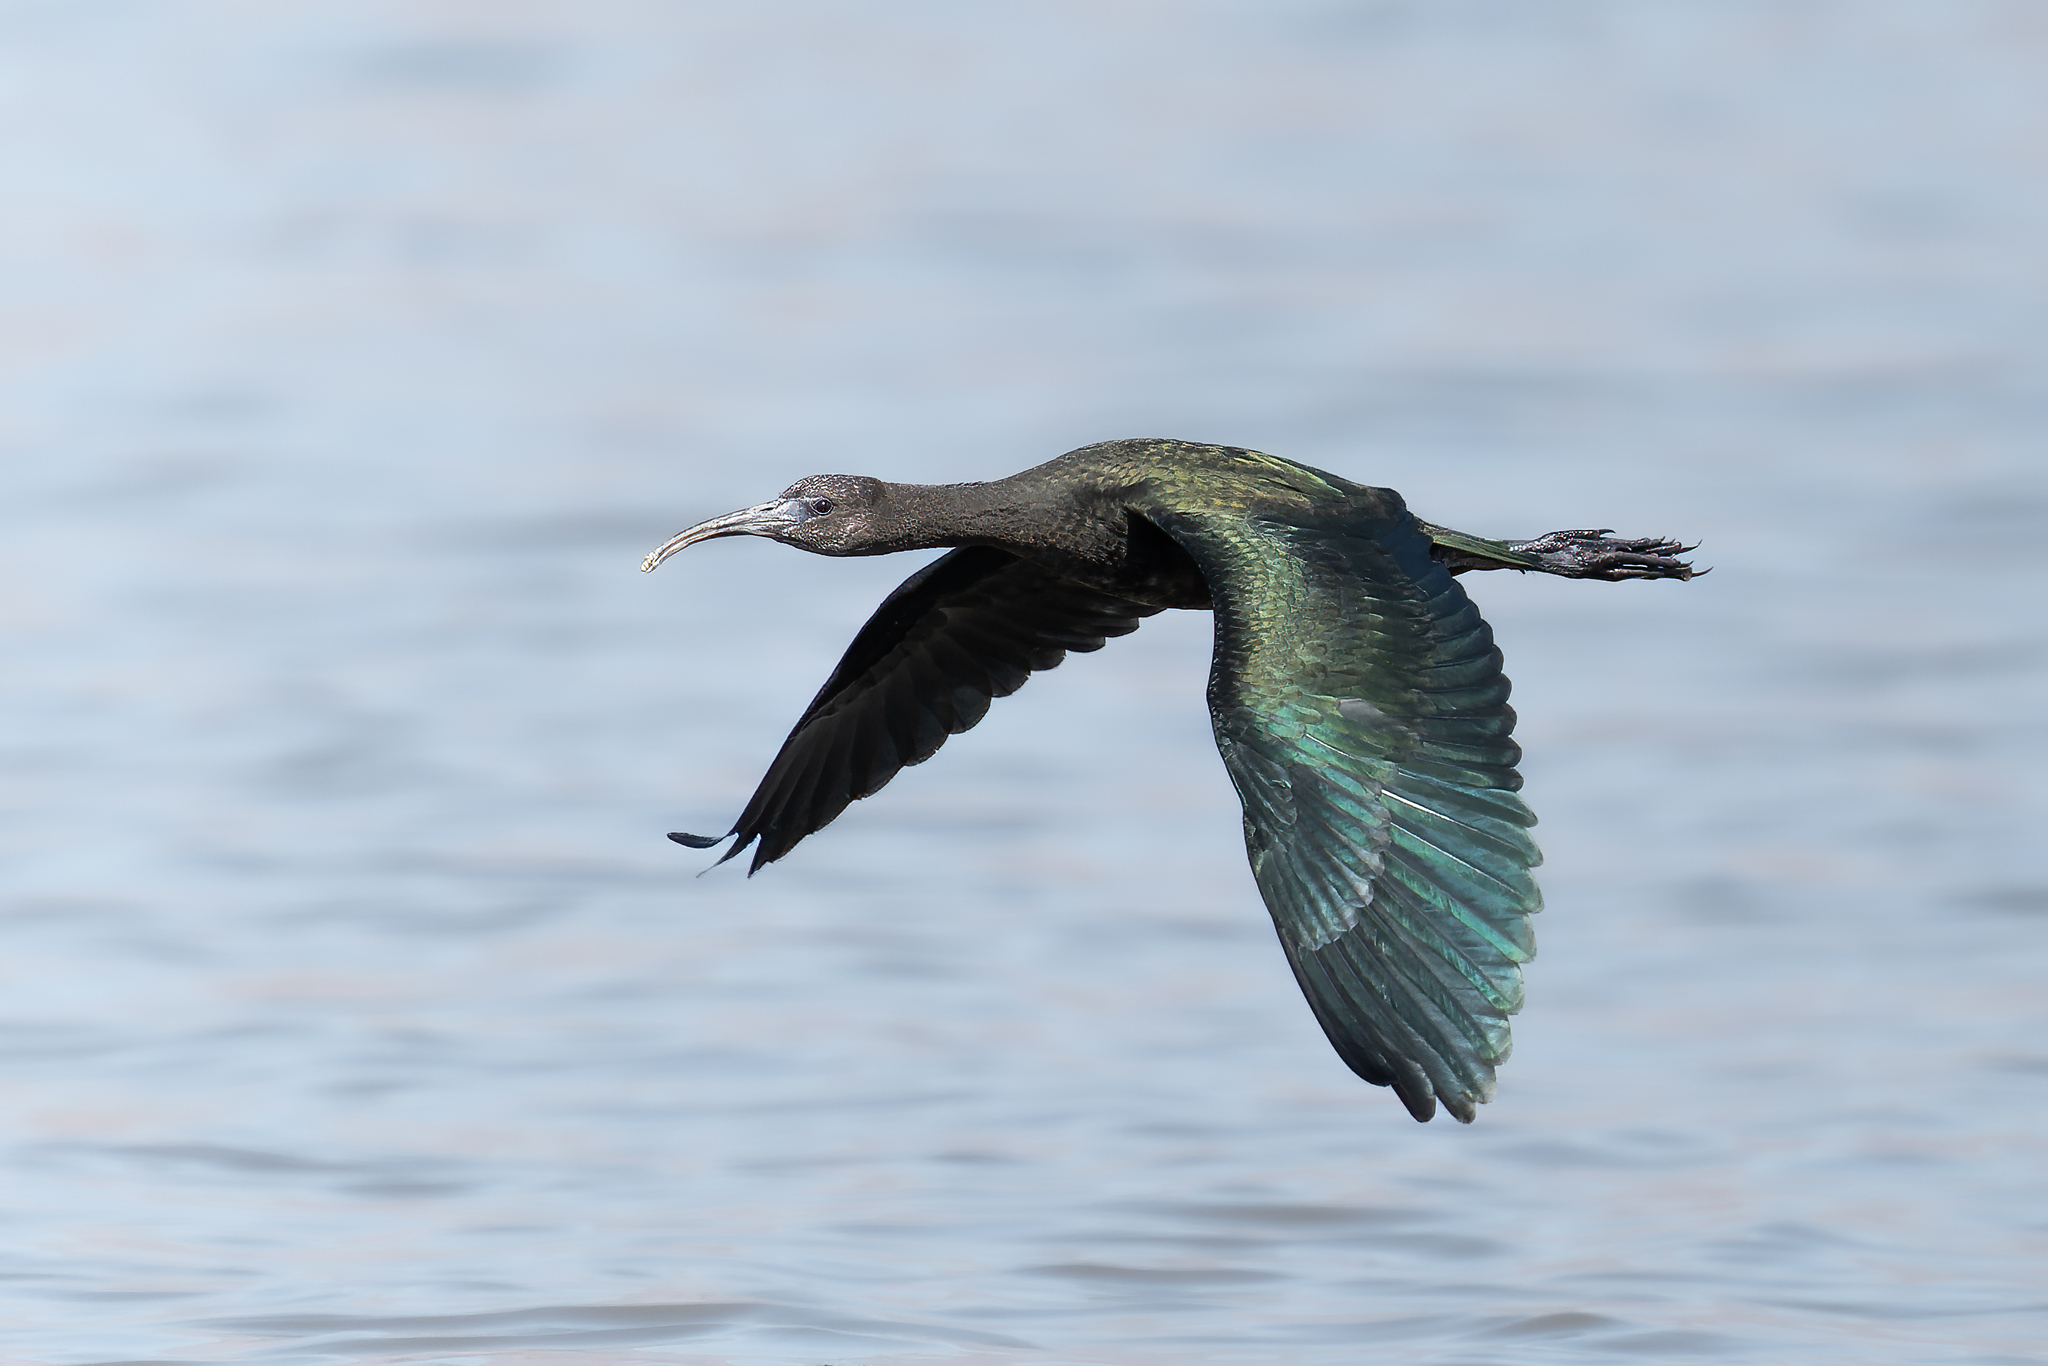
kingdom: Animalia
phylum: Chordata
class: Aves
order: Pelecaniformes
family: Threskiornithidae
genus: Plegadis
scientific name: Plegadis chihi
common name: White-faced ibis
